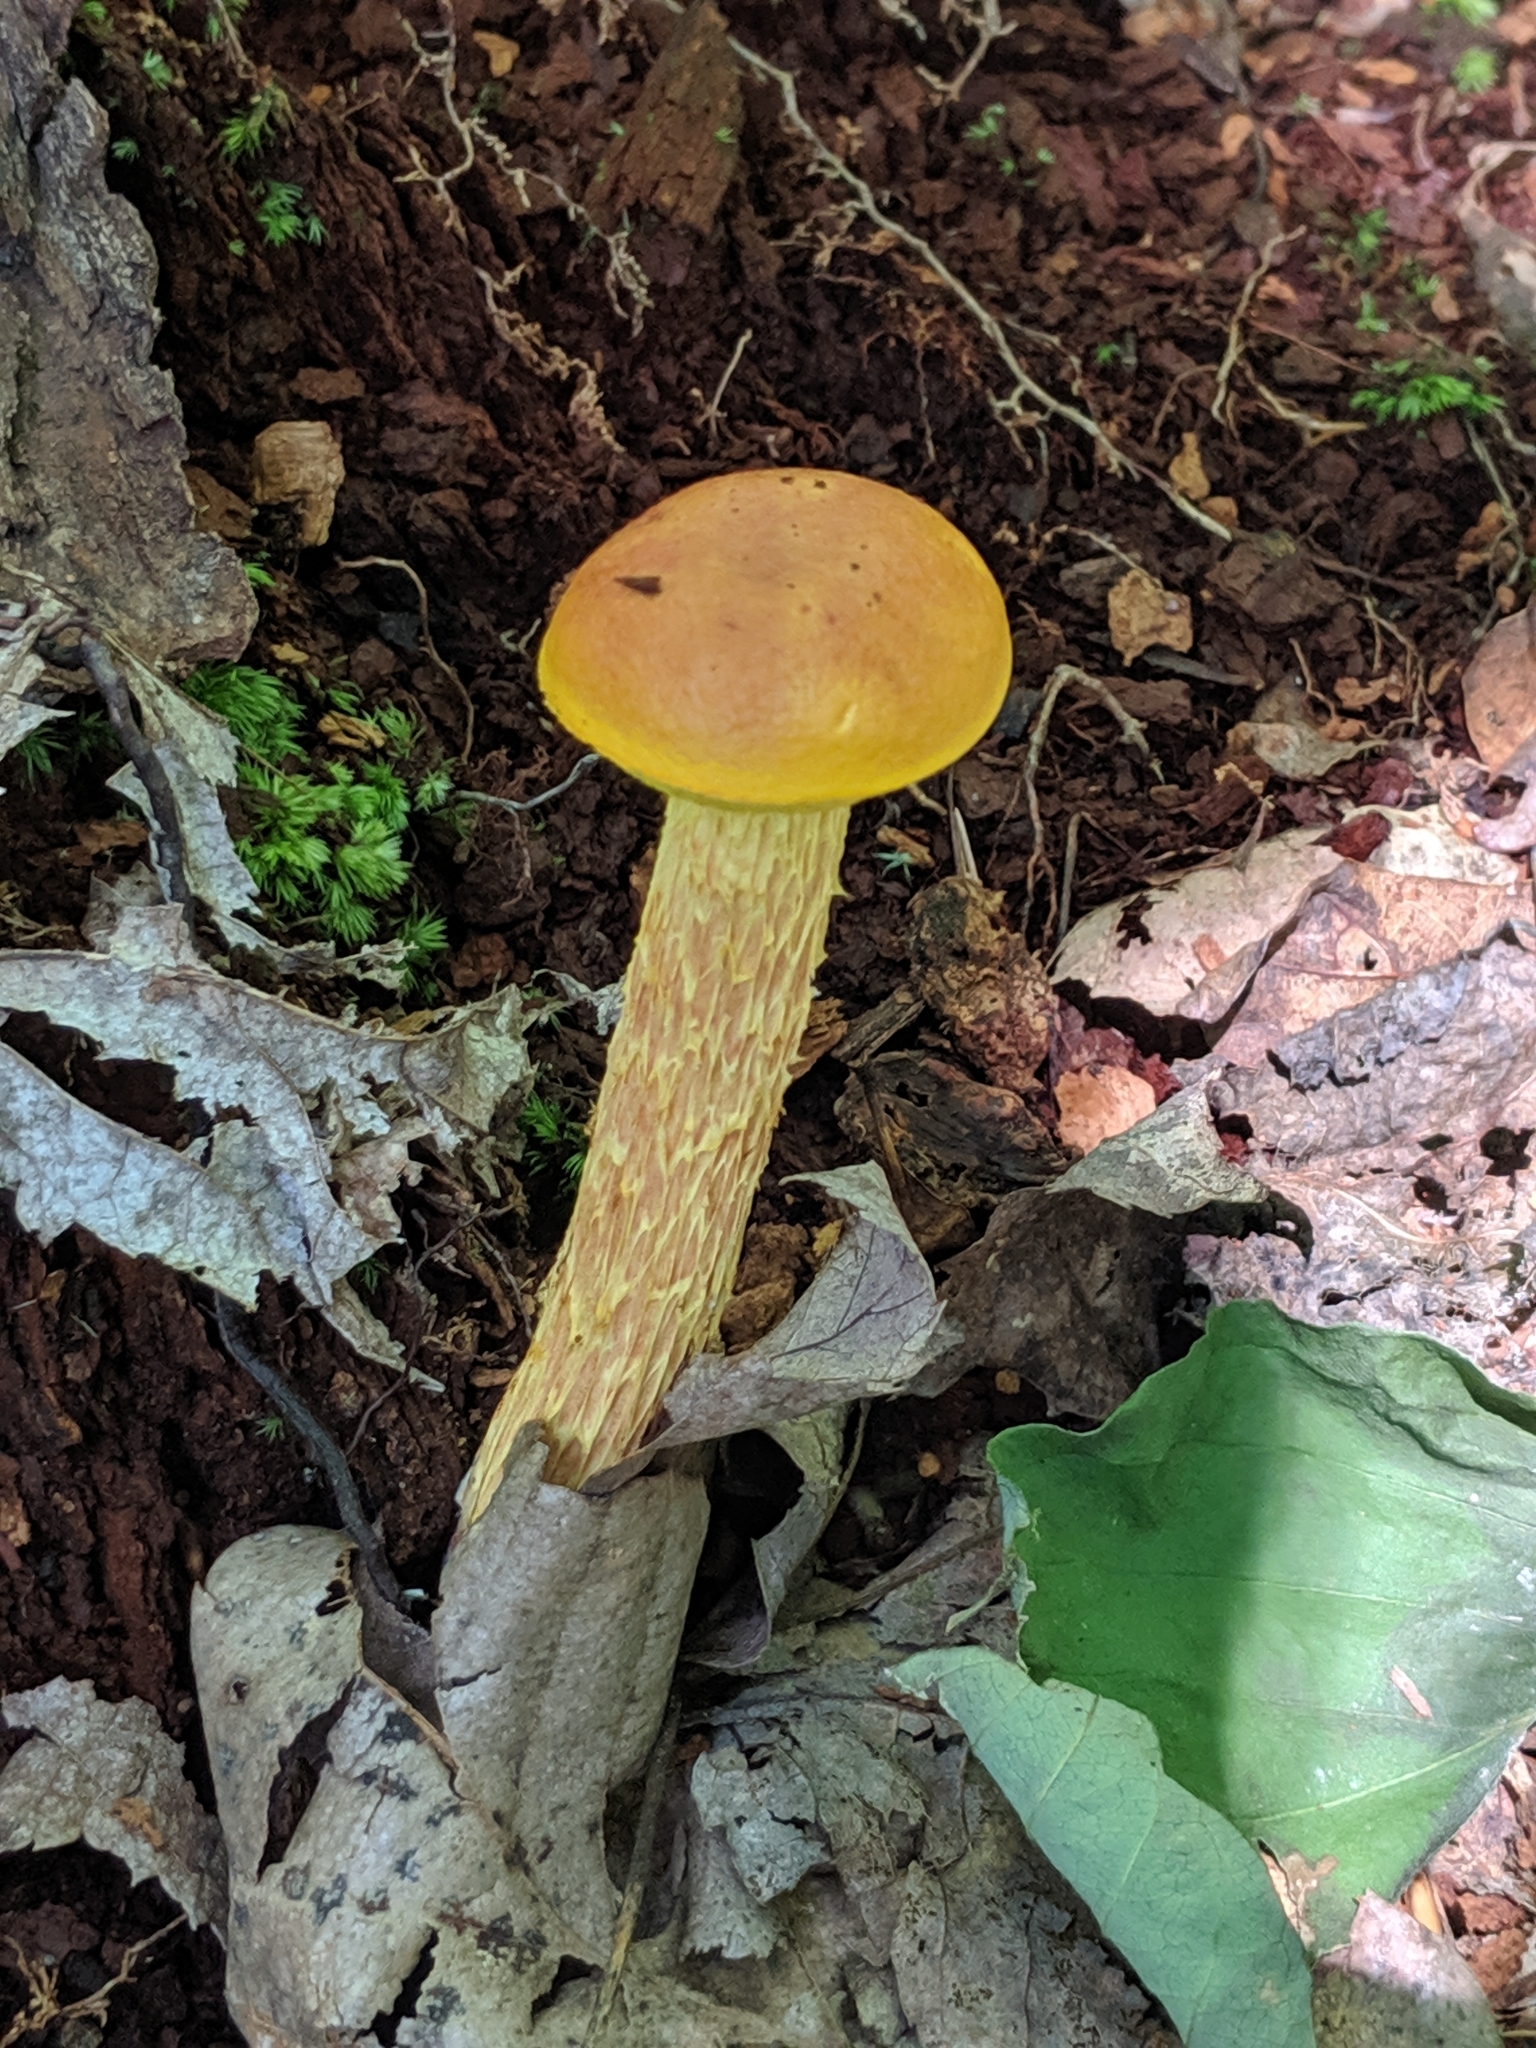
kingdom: Fungi
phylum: Basidiomycota
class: Agaricomycetes
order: Boletales
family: Boletaceae
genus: Aureoboletus
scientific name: Aureoboletus betula
